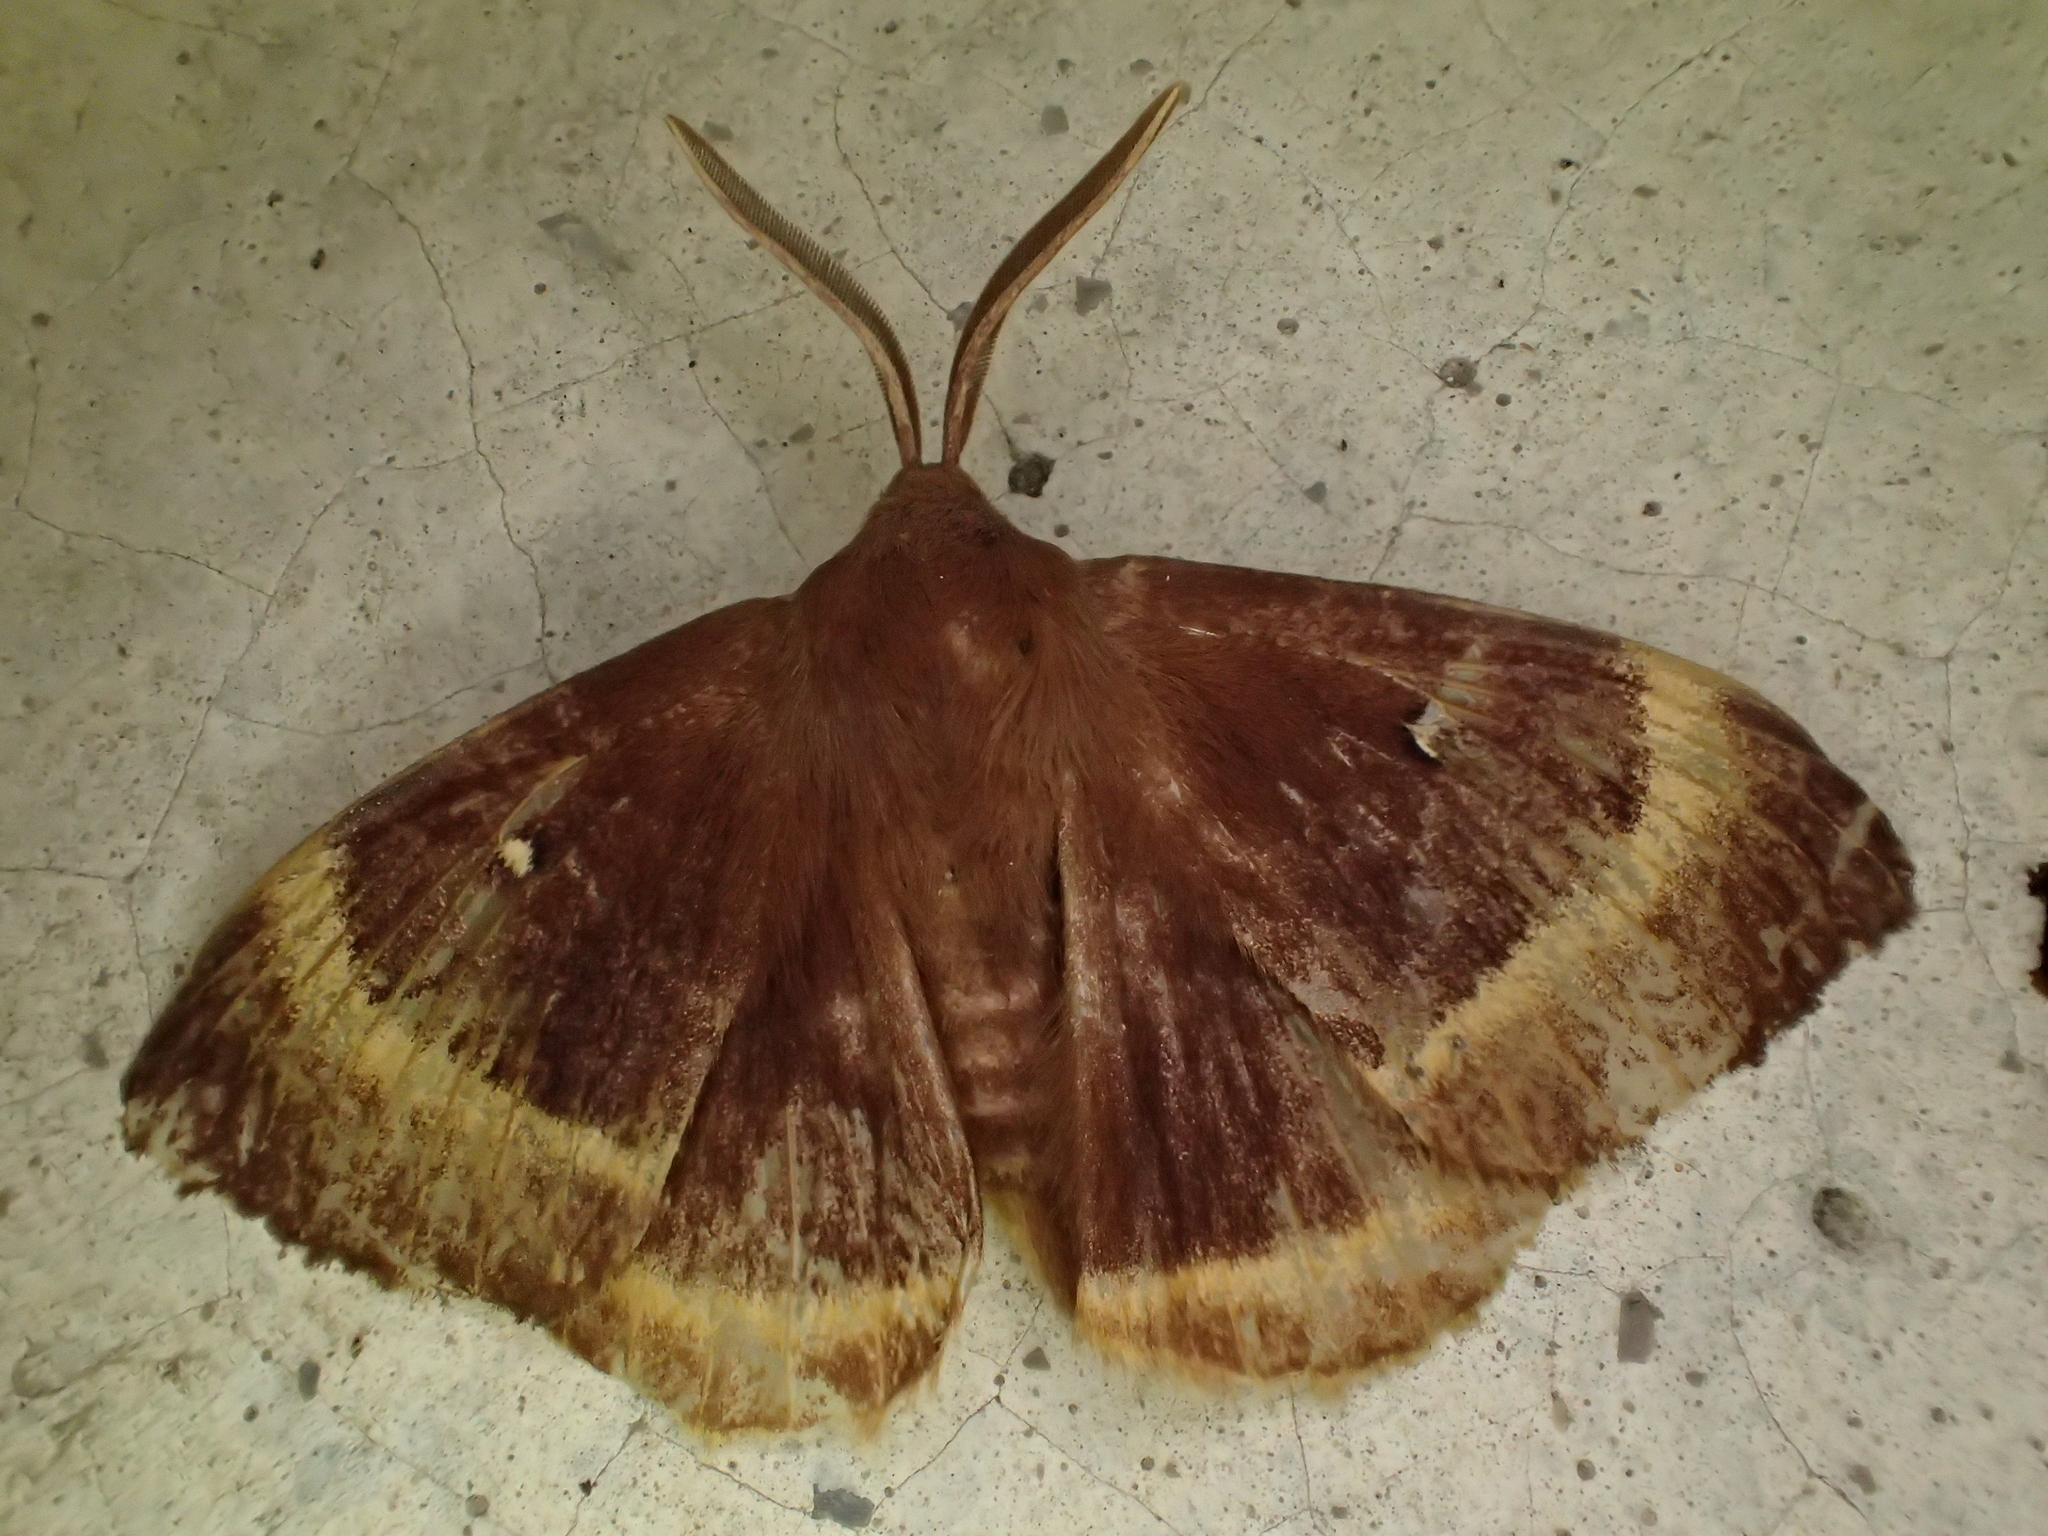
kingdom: Animalia
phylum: Arthropoda
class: Insecta
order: Lepidoptera
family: Lasiocampidae
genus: Lasiocampa
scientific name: Lasiocampa quercus
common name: Oak eggar
